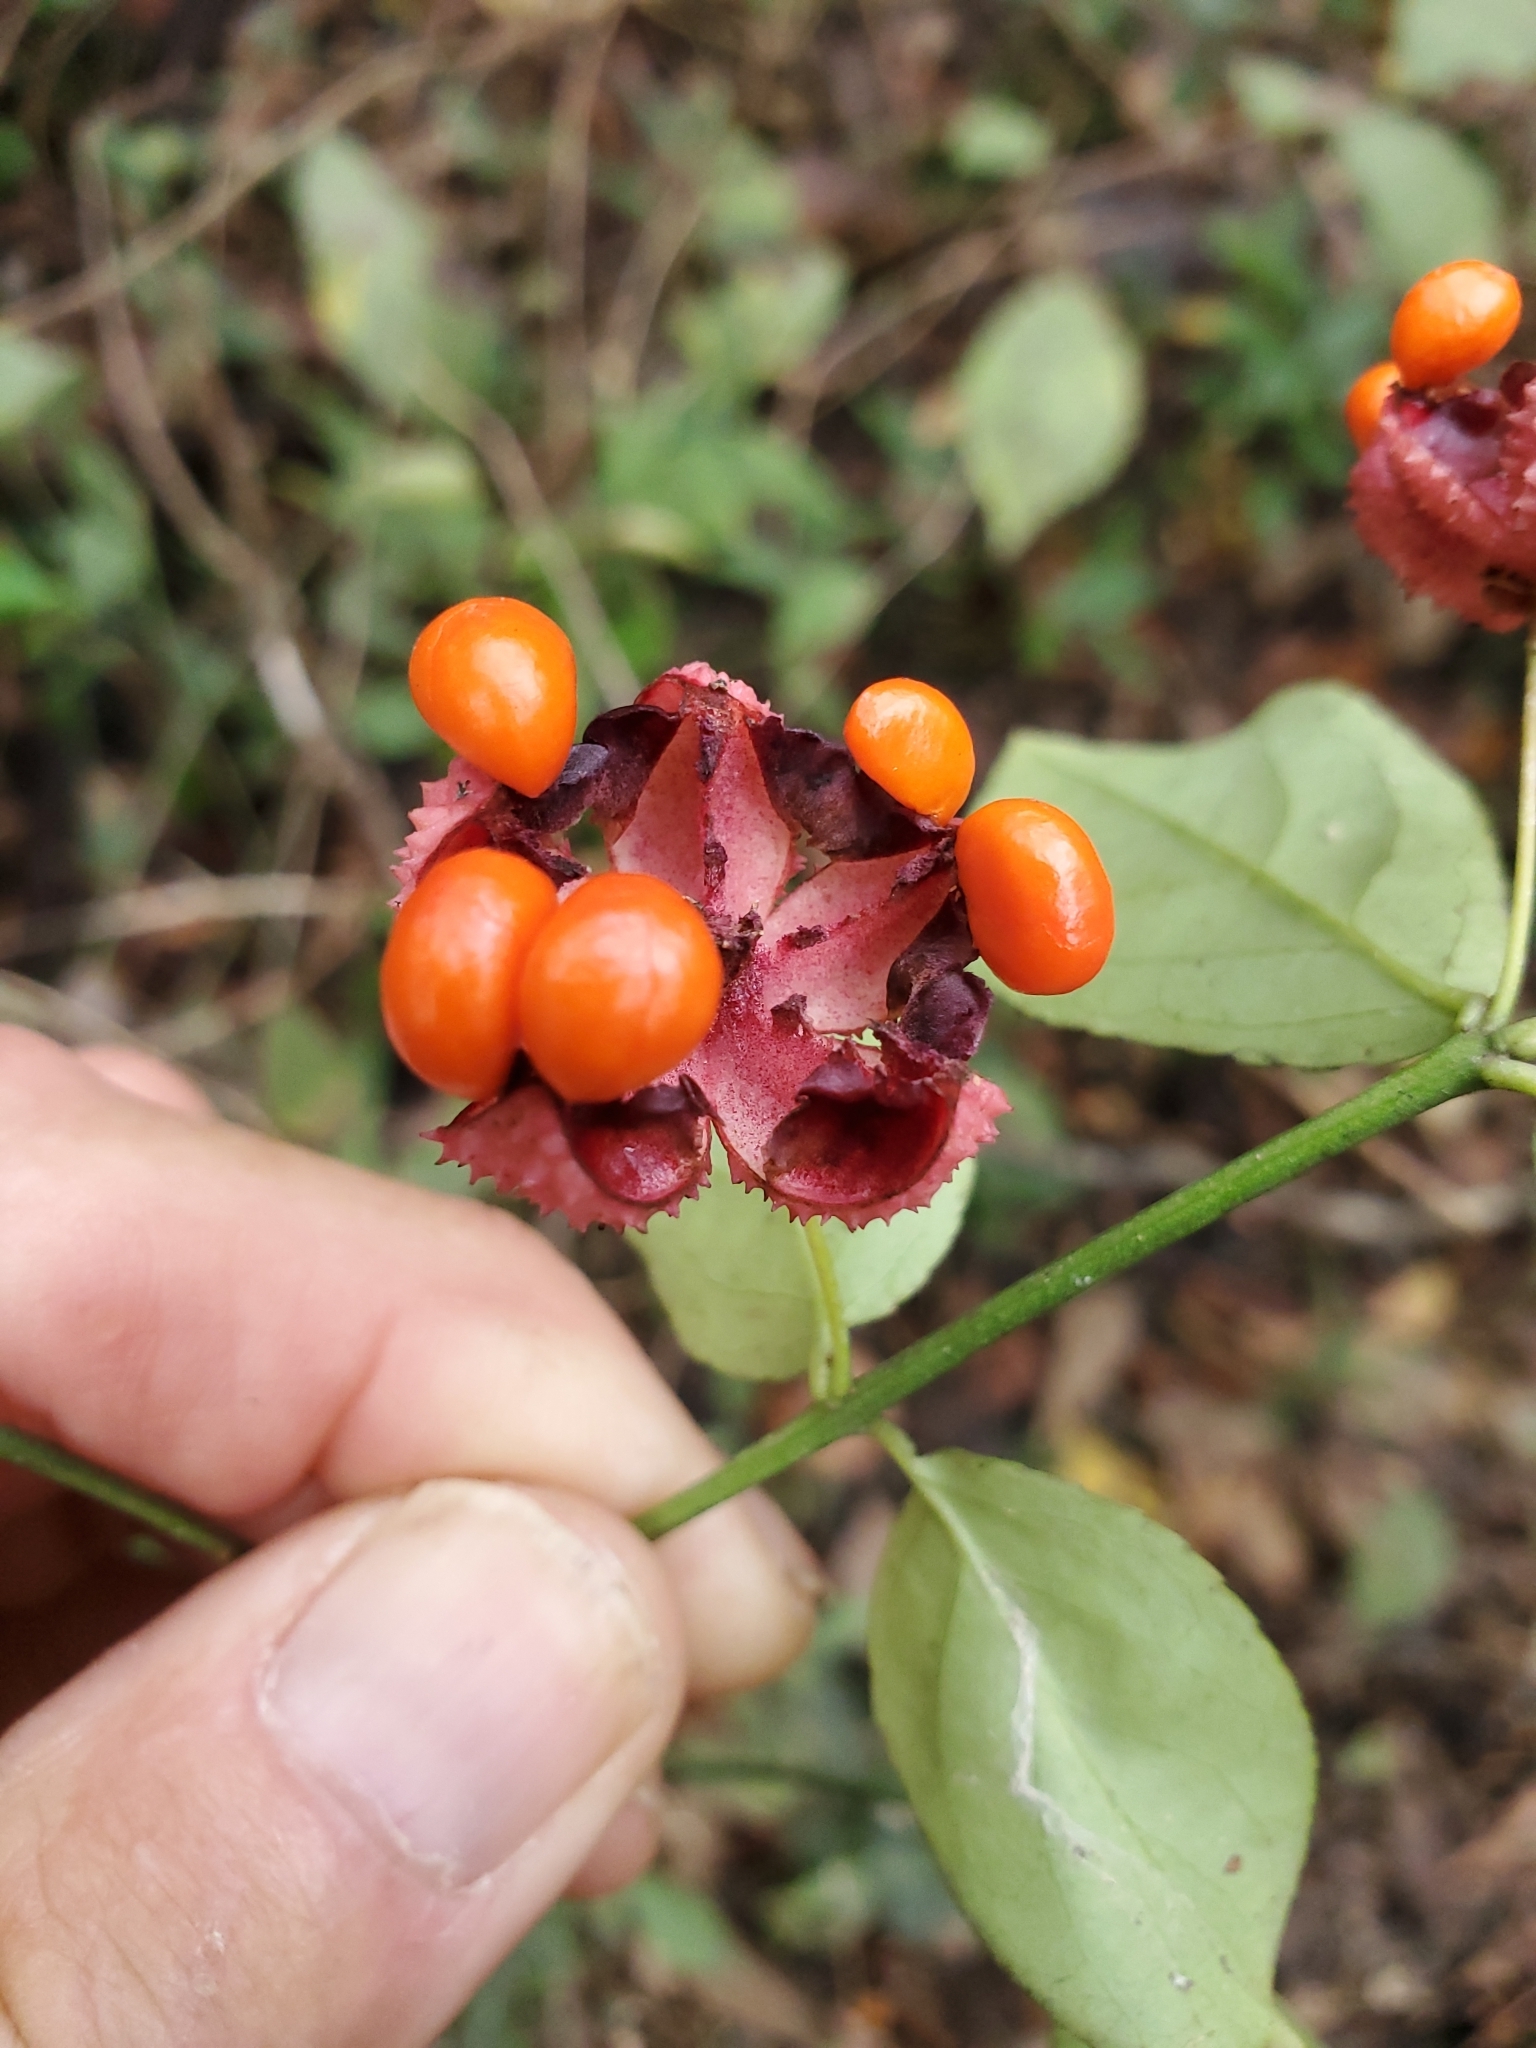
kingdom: Plantae
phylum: Tracheophyta
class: Magnoliopsida
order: Celastrales
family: Celastraceae
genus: Euonymus
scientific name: Euonymus americanus
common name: Bursting-heart
